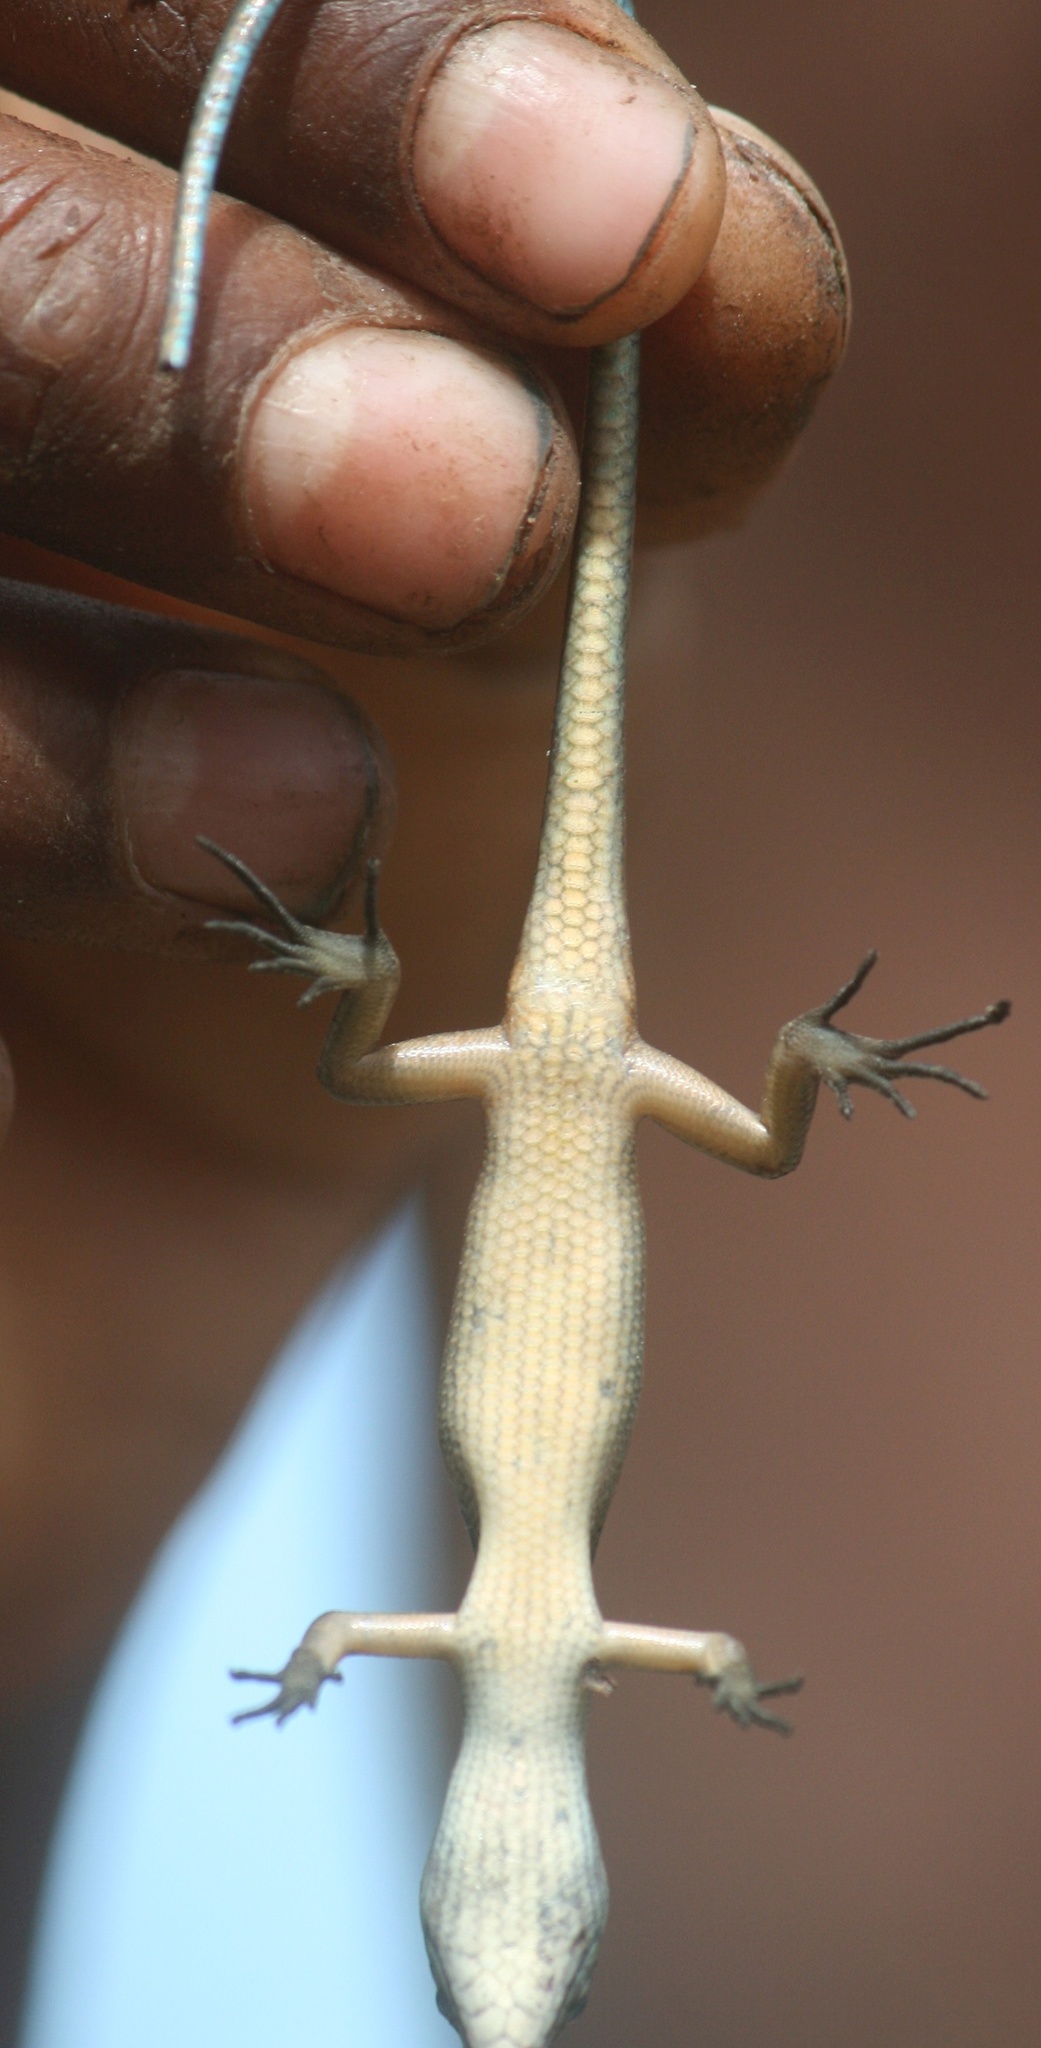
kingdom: Animalia
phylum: Chordata
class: Squamata
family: Scincidae
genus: Emoia
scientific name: Emoia caeruleocauda
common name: Pacific bluetail skink
